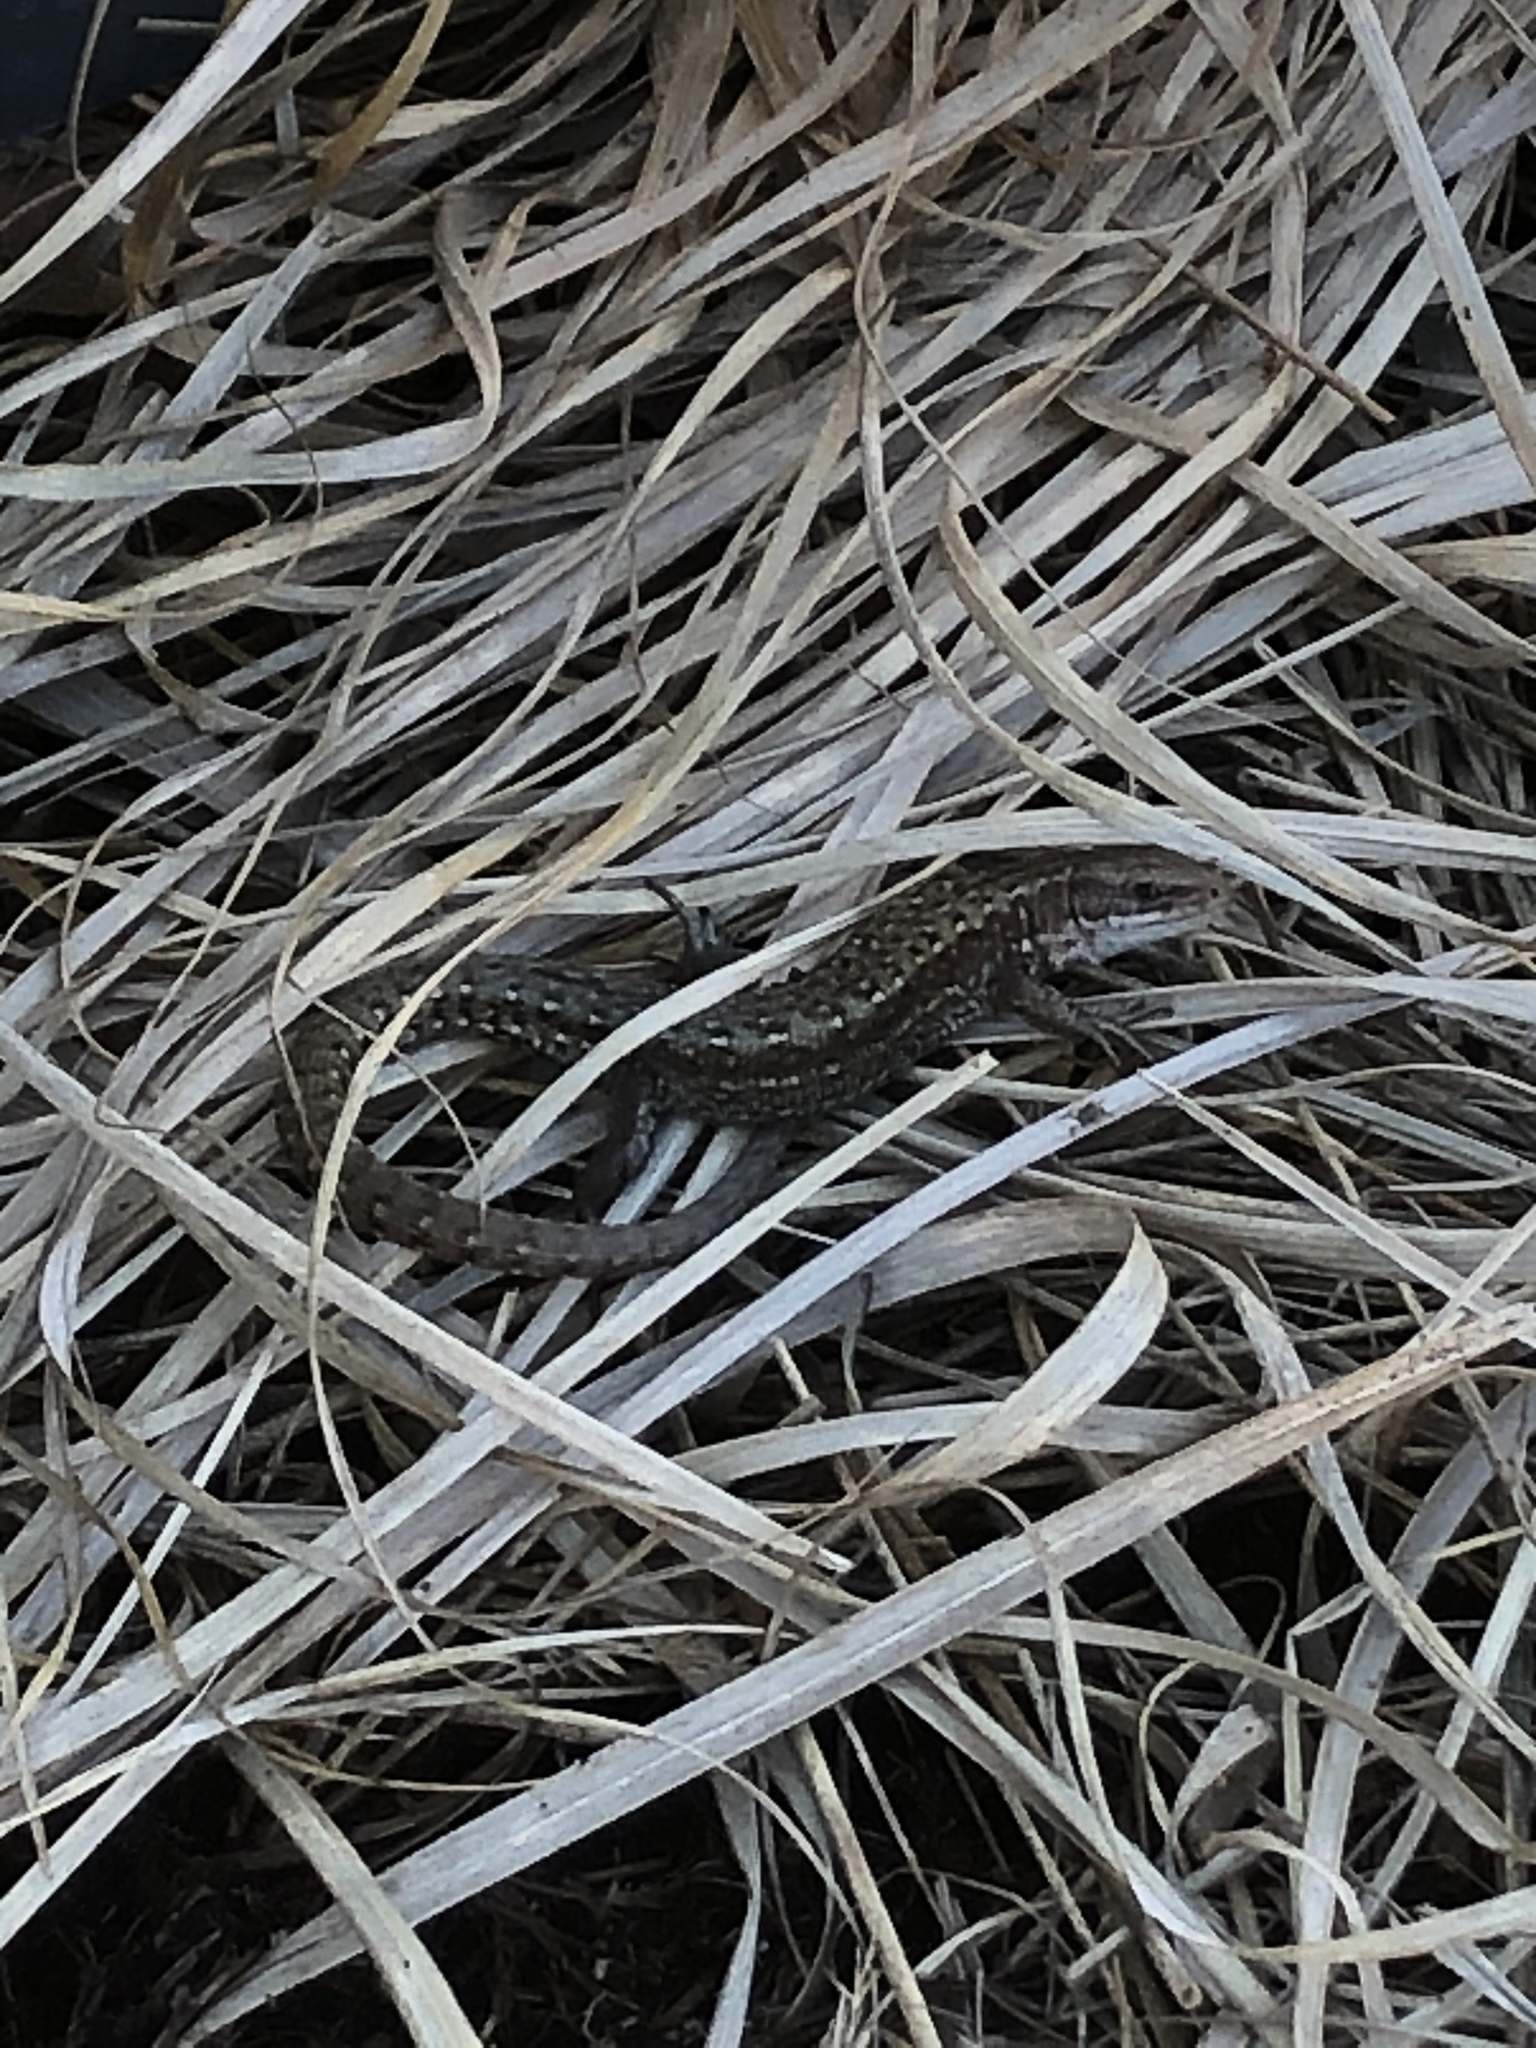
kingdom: Animalia
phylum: Chordata
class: Squamata
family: Lacertidae
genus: Zootoca
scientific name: Zootoca vivipara
